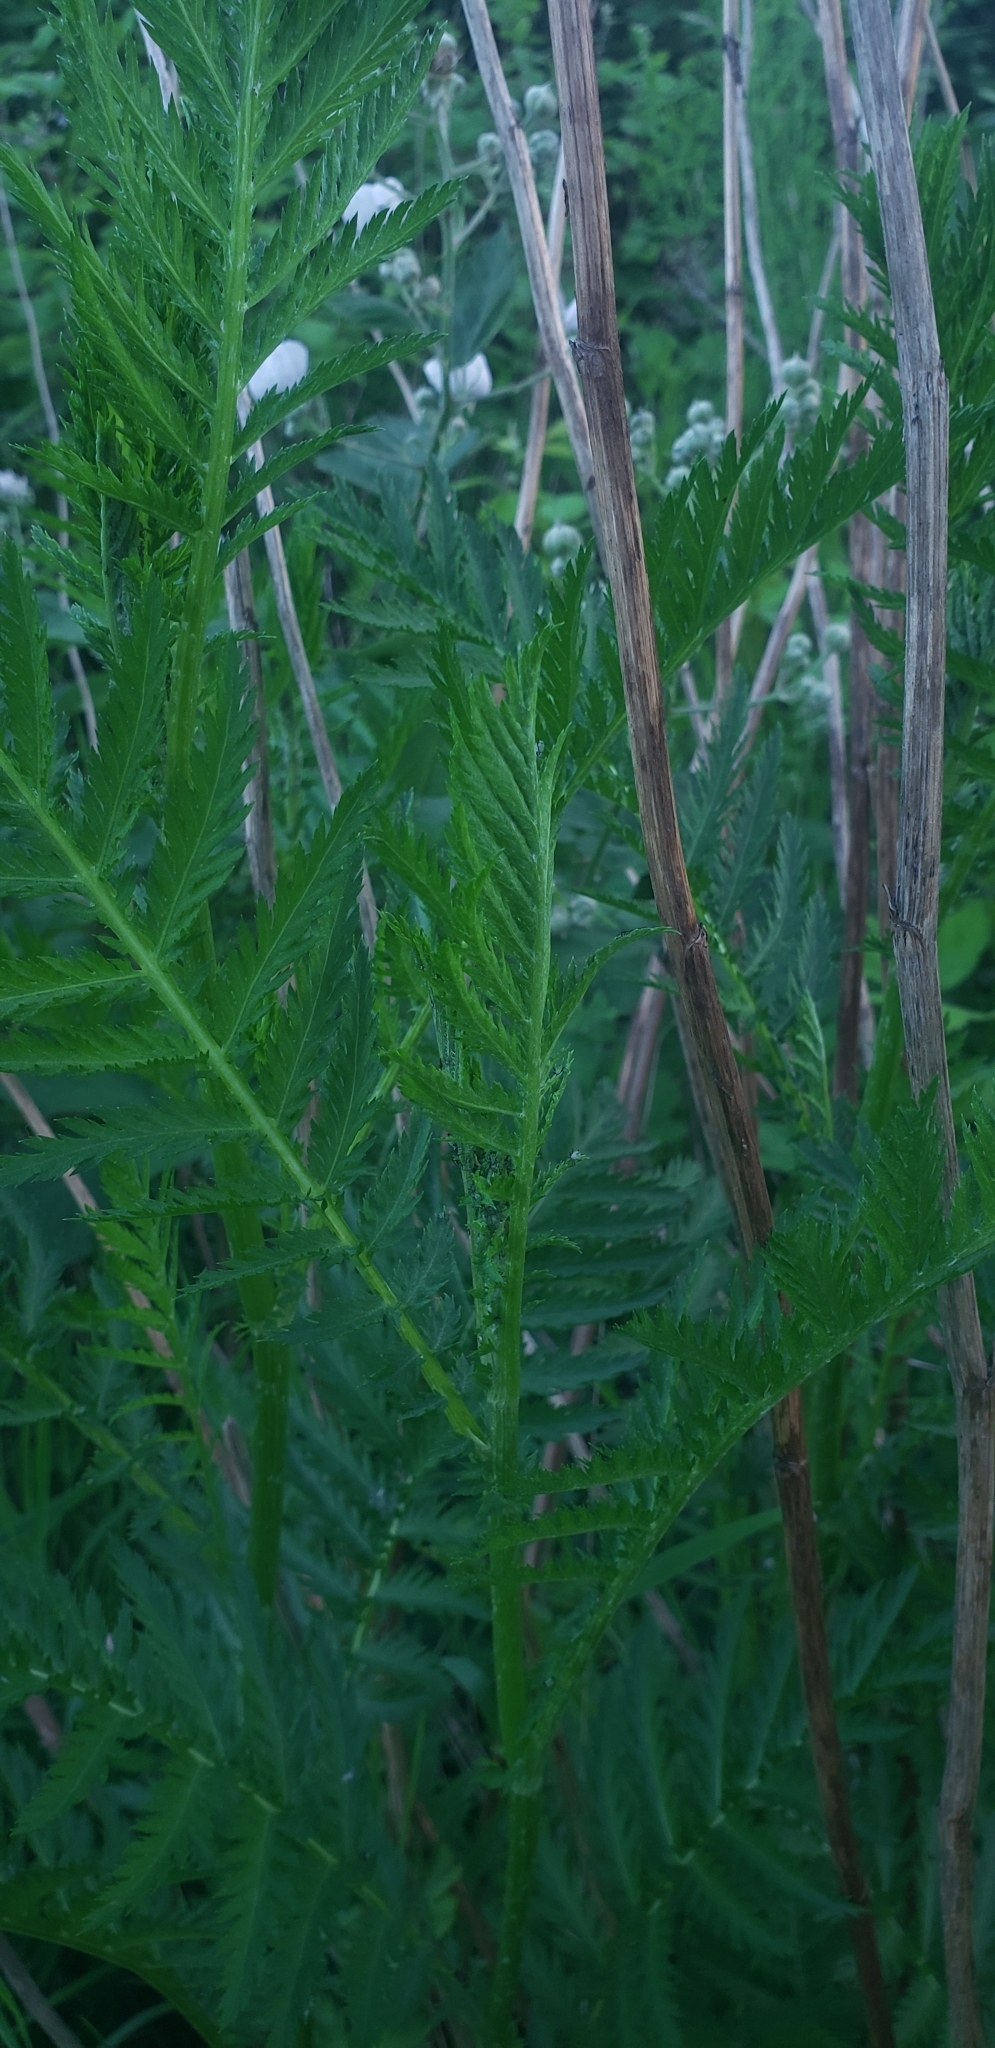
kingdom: Plantae
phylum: Tracheophyta
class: Magnoliopsida
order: Asterales
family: Asteraceae
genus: Tanacetum
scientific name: Tanacetum vulgare
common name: Common tansy
